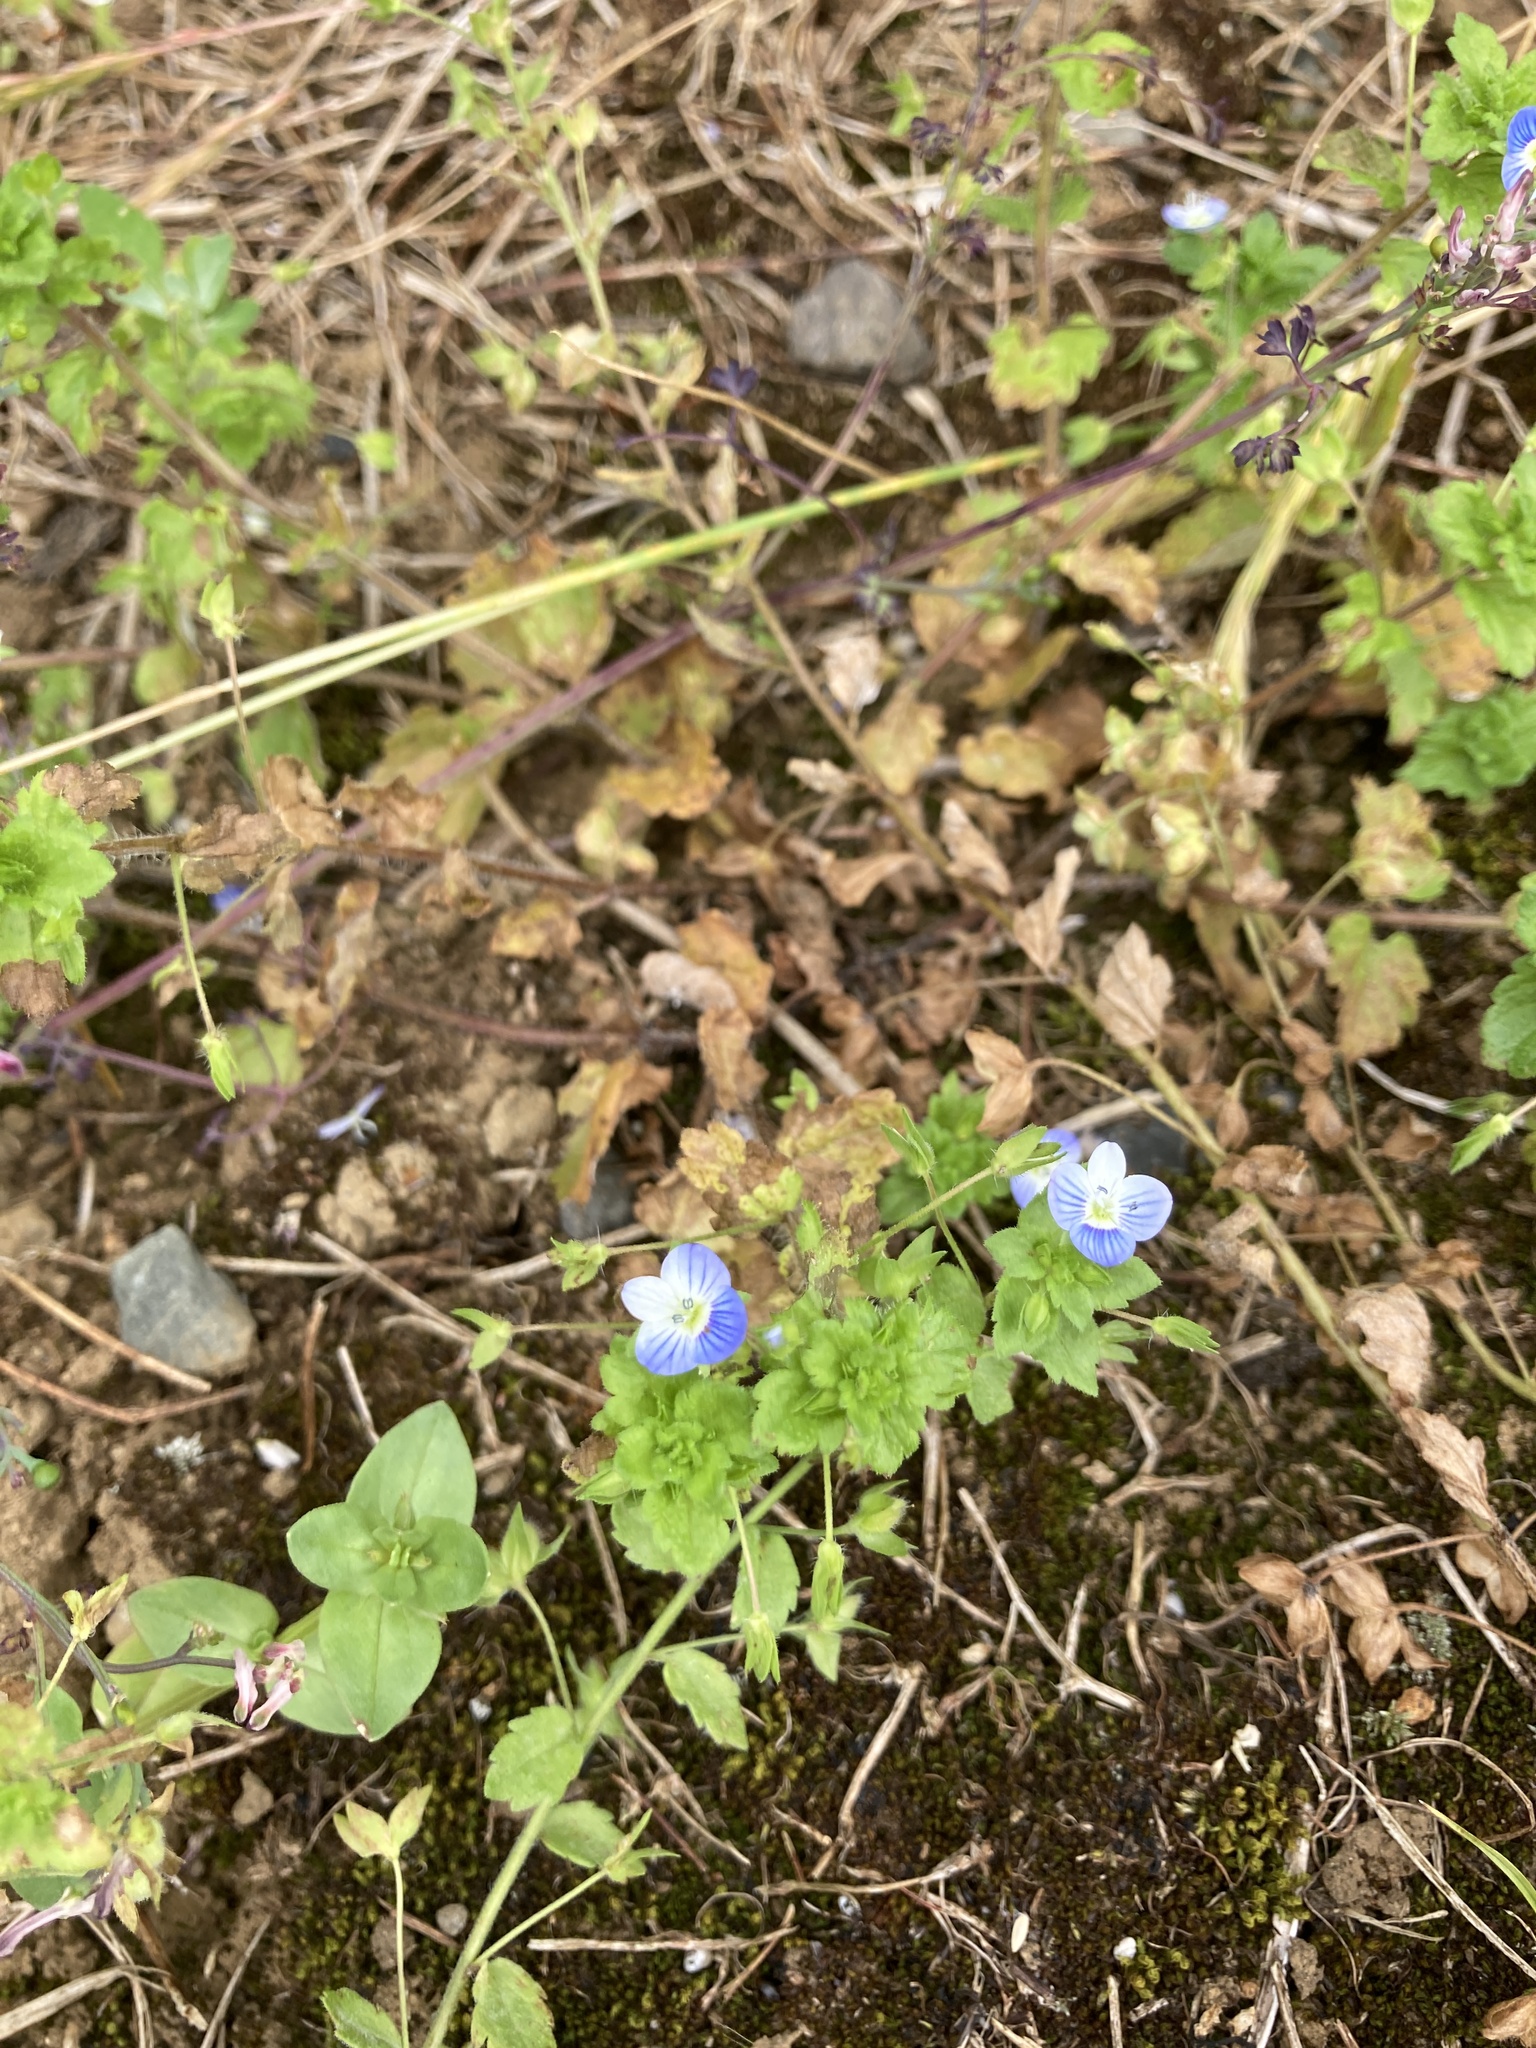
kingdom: Plantae
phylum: Tracheophyta
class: Magnoliopsida
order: Lamiales
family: Plantaginaceae
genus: Veronica
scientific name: Veronica persica
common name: Common field-speedwell
